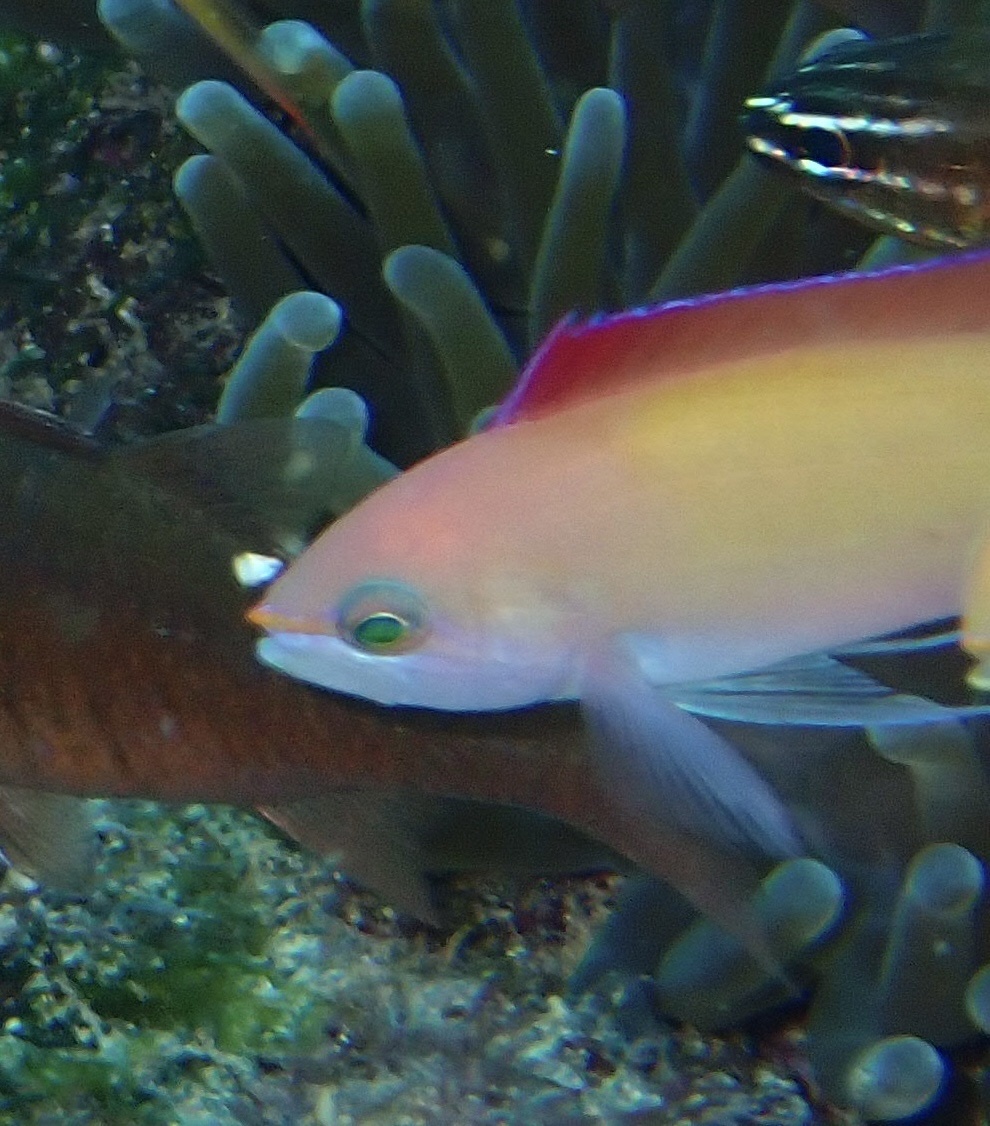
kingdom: Animalia
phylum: Chordata
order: Perciformes
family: Serranidae
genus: Nemanthias
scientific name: Nemanthias
